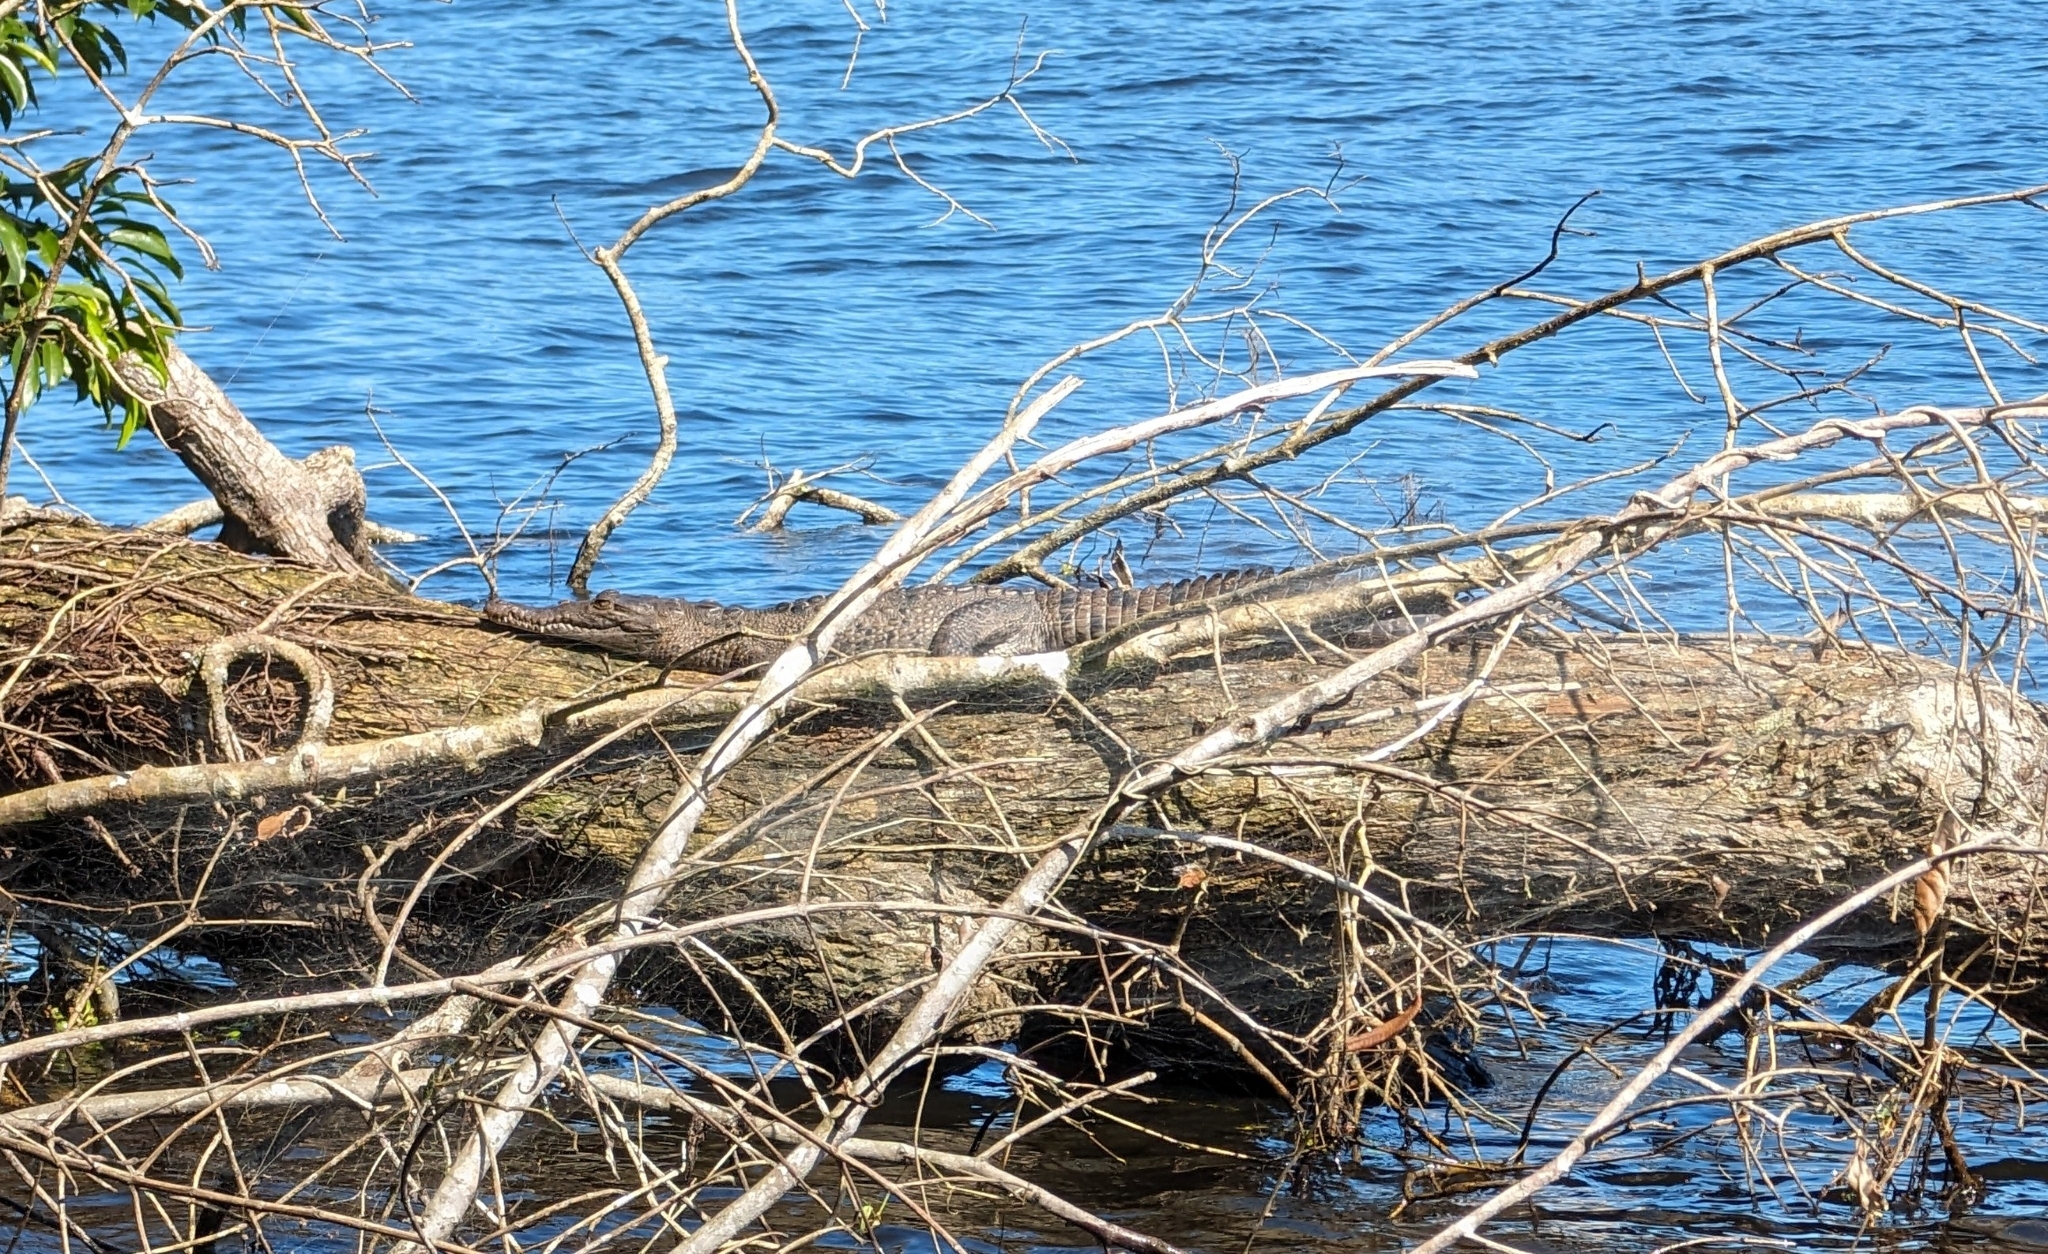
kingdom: Animalia
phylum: Chordata
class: Crocodylia
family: Crocodylidae
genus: Crocodylus
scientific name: Crocodylus acutus
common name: American crocodile
